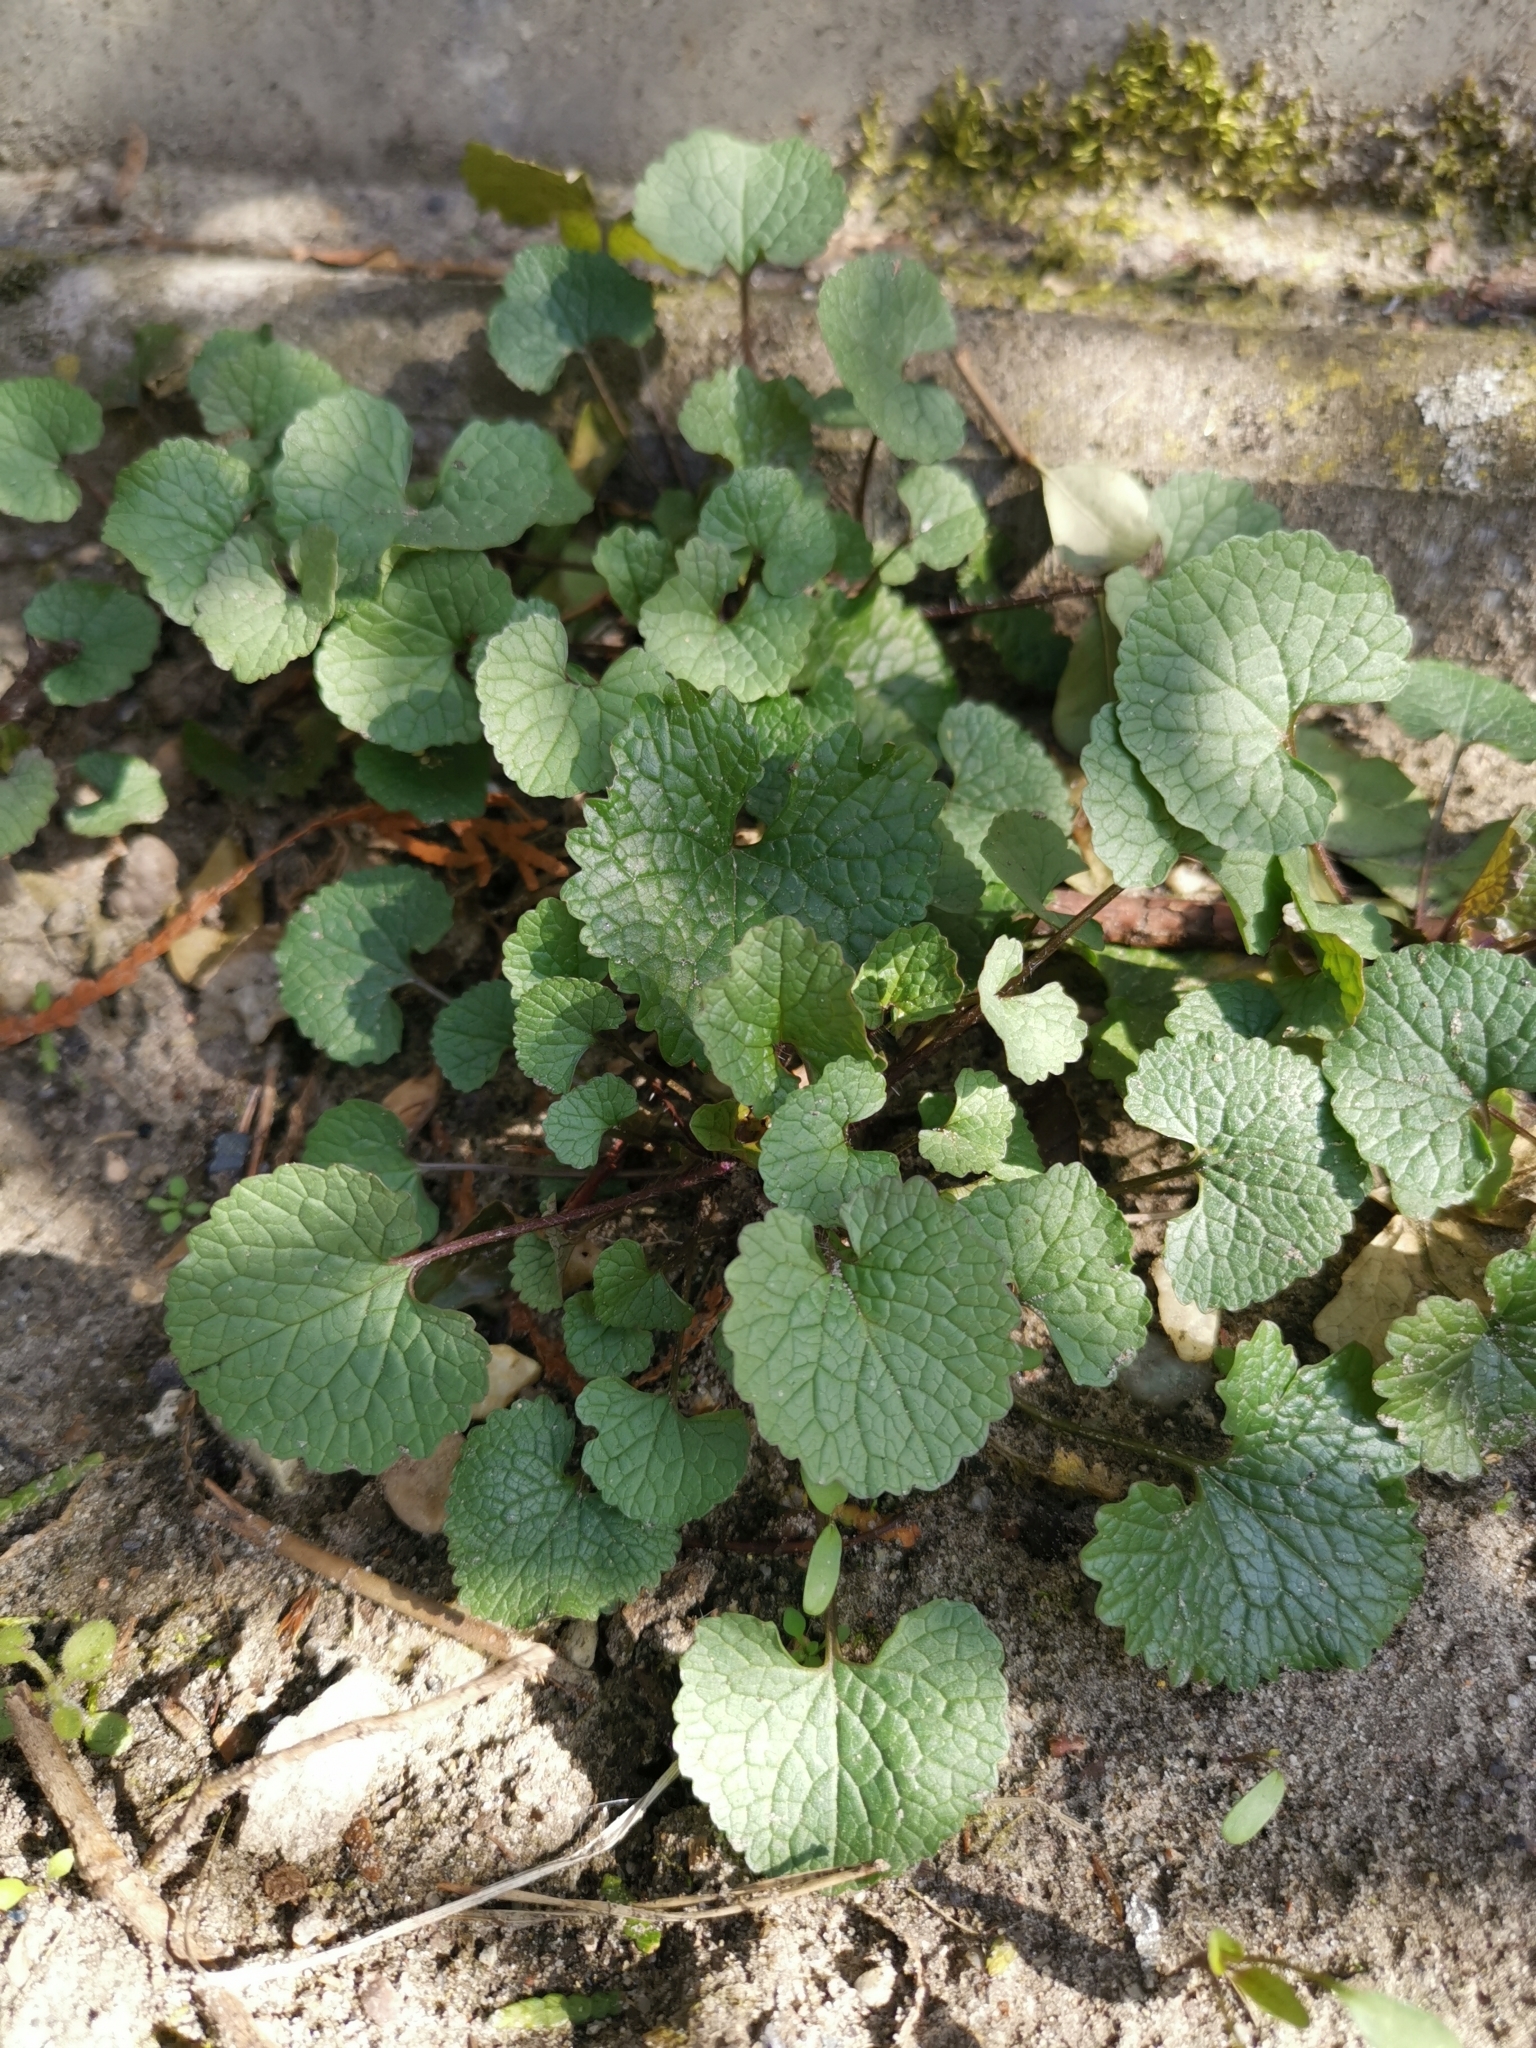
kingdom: Plantae
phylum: Tracheophyta
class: Magnoliopsida
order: Brassicales
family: Brassicaceae
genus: Alliaria
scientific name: Alliaria petiolata
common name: Garlic mustard
